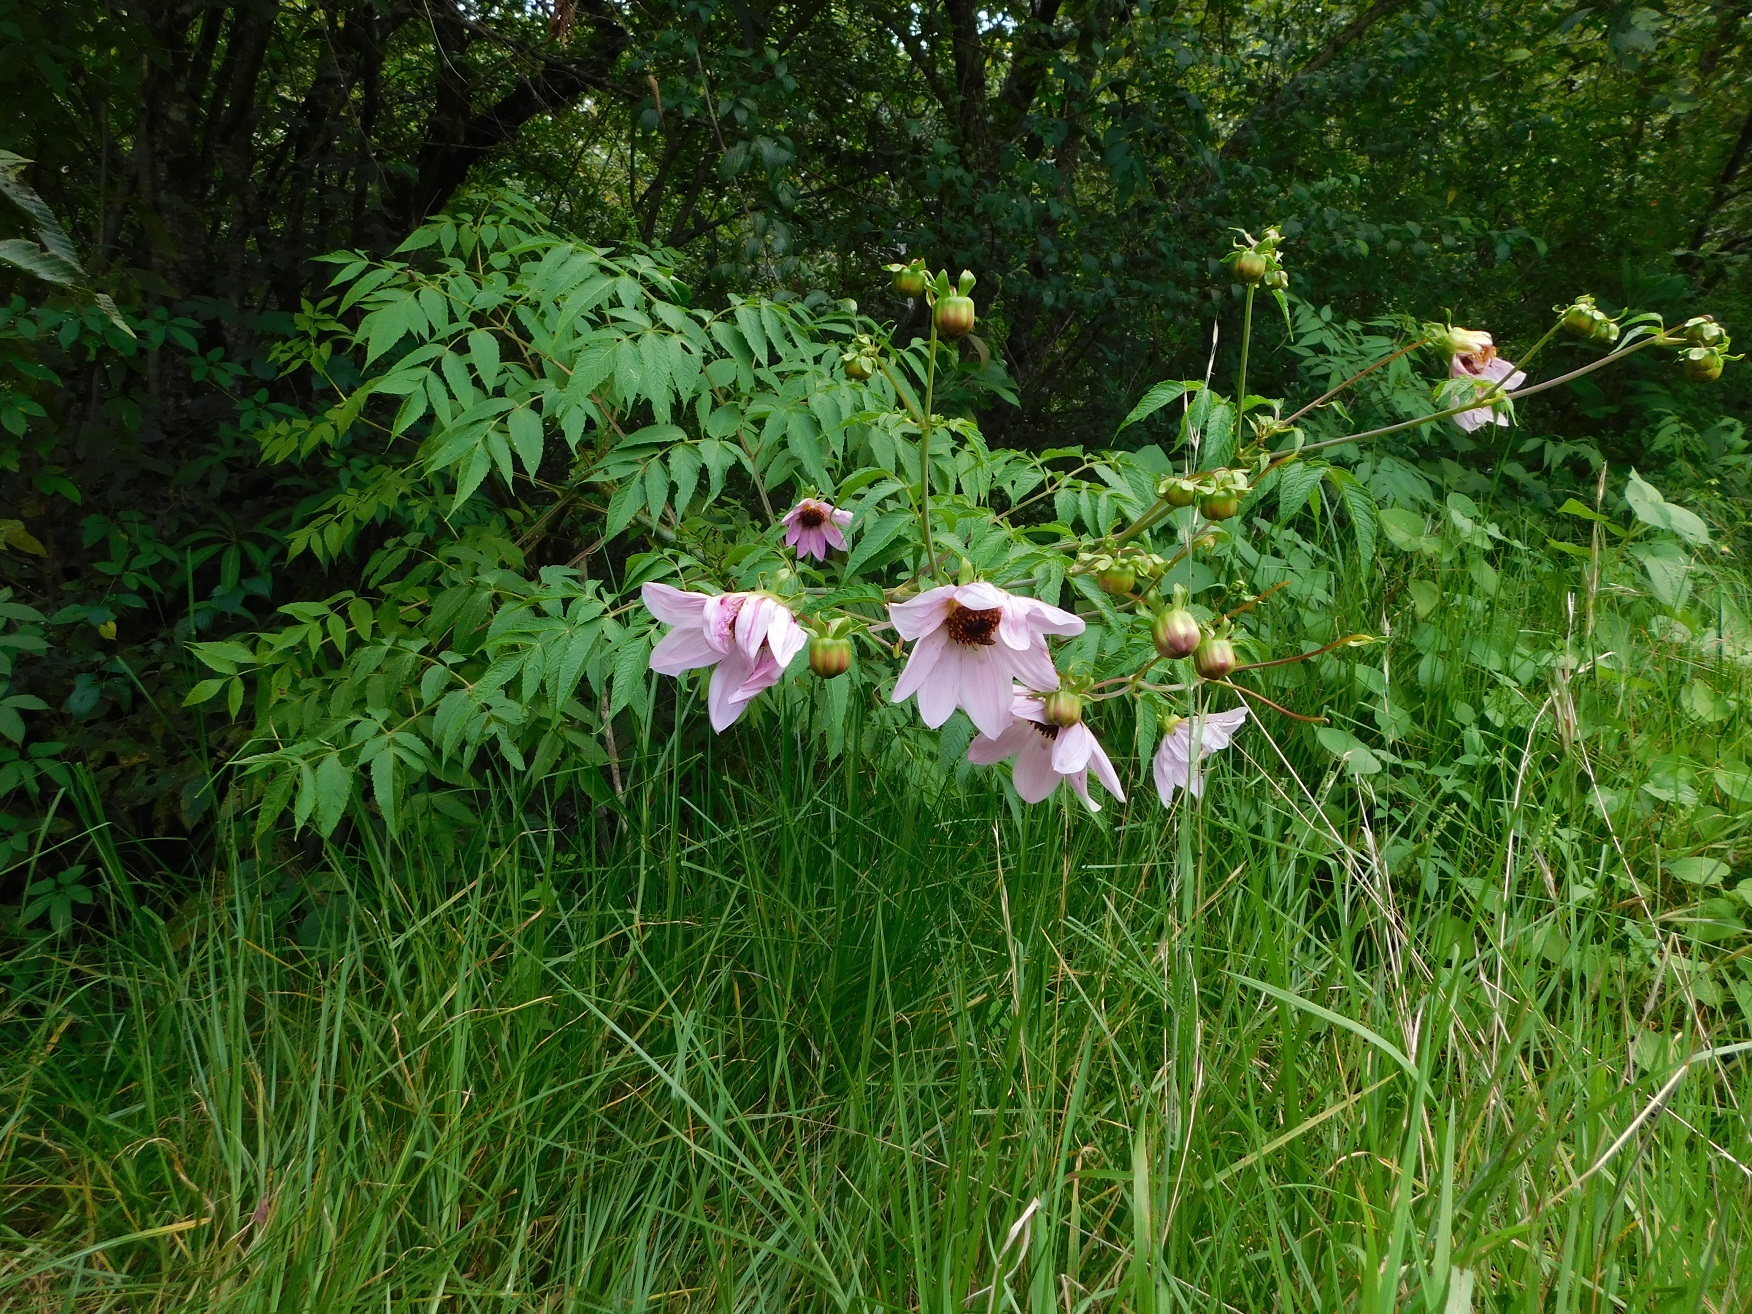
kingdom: Plantae
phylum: Tracheophyta
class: Magnoliopsida
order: Asterales
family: Asteraceae
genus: Dahlia
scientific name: Dahlia imperialis
